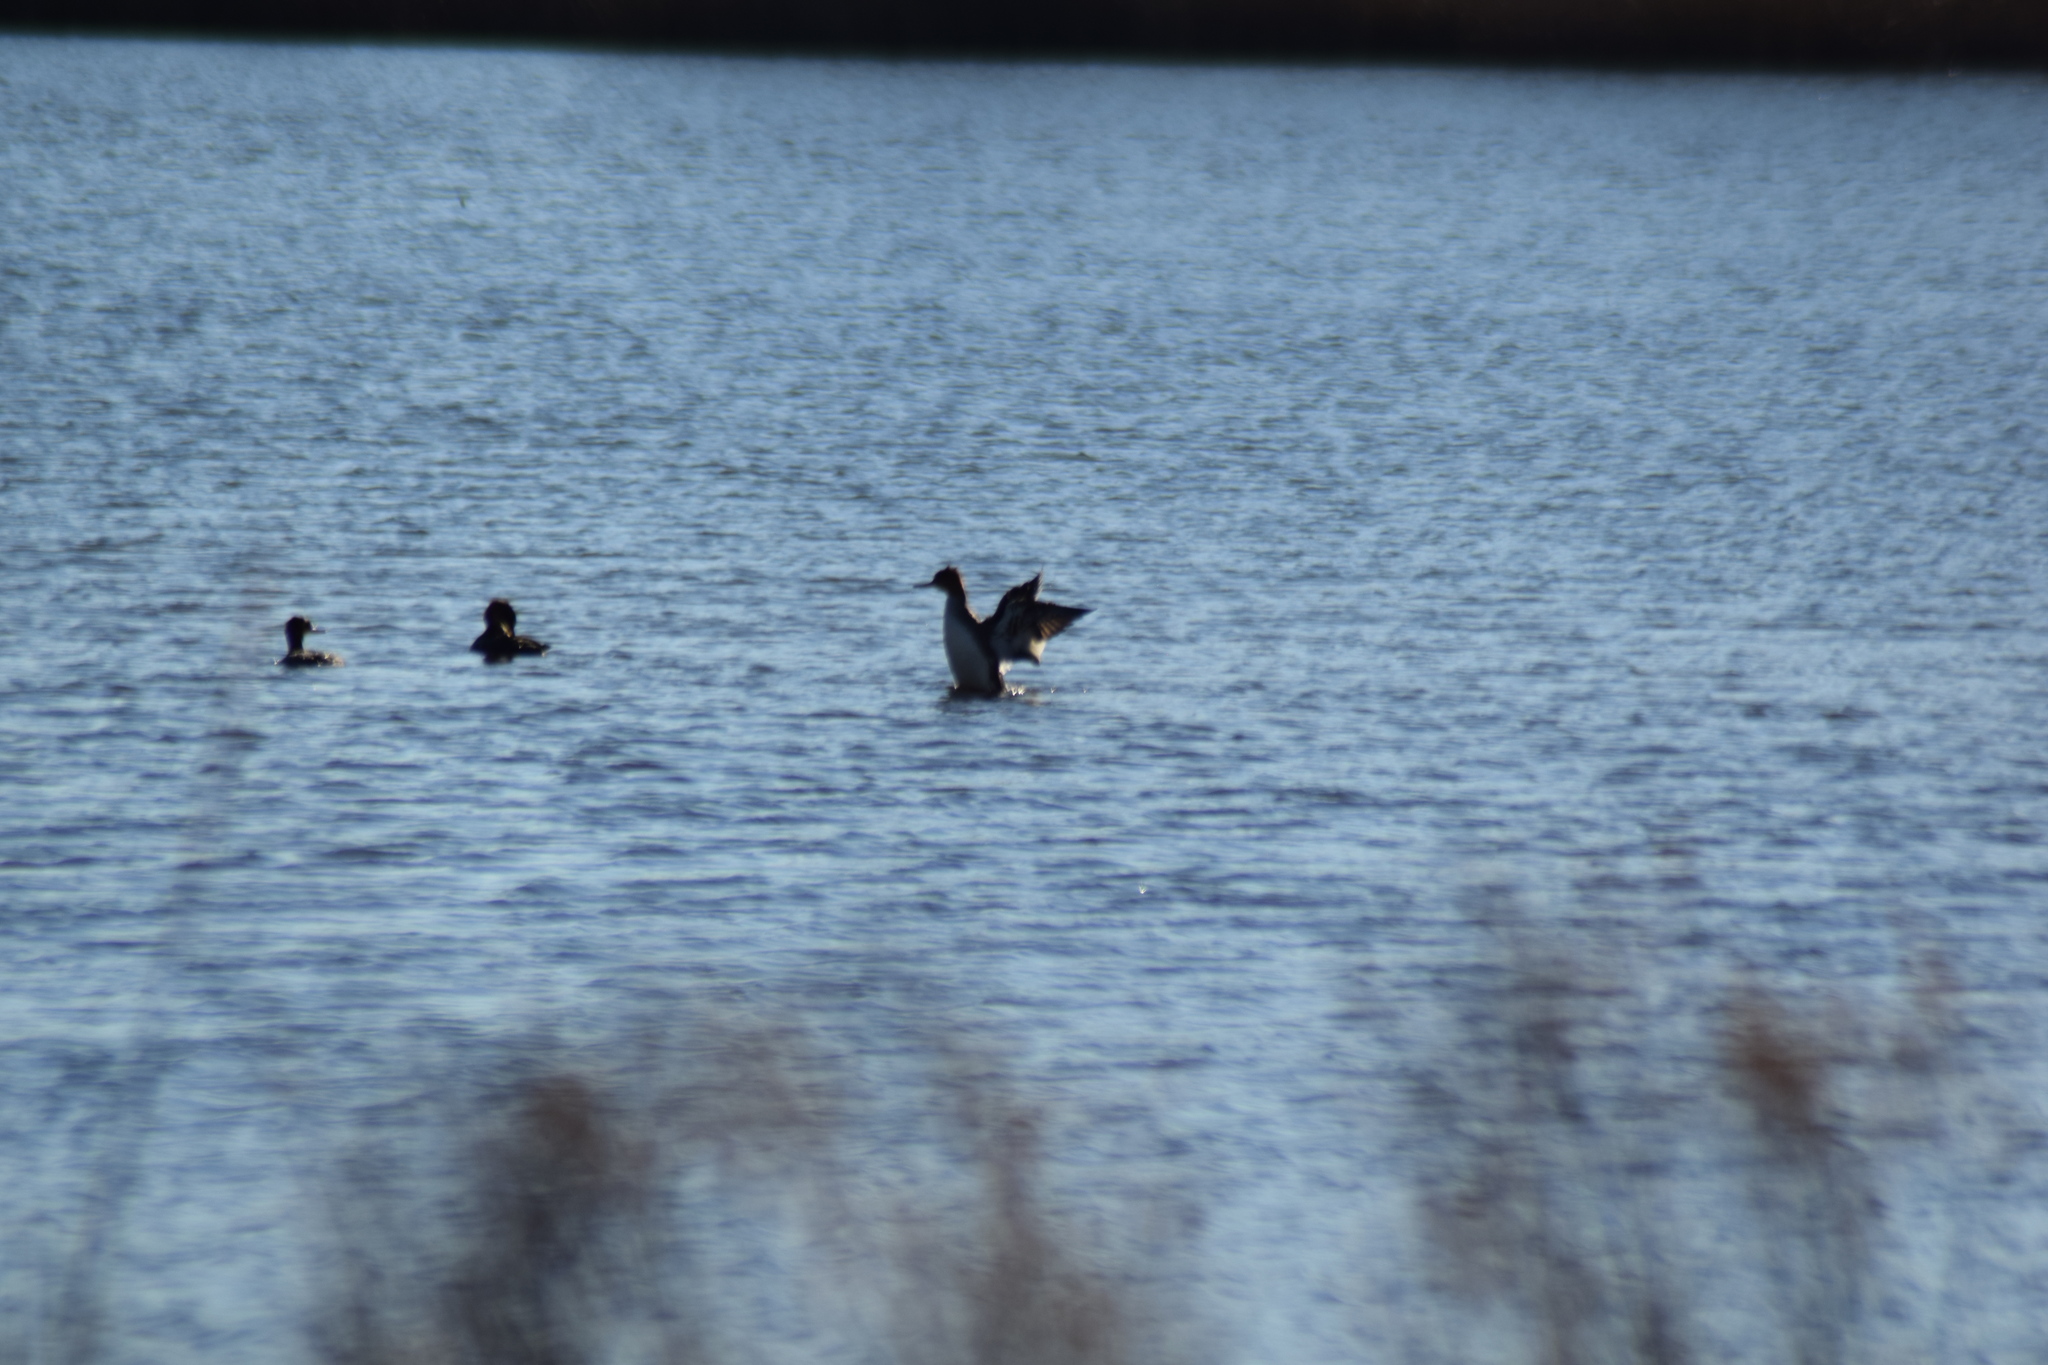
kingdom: Animalia
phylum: Chordata
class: Aves
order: Anseriformes
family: Anatidae
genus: Mergus
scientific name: Mergus serrator
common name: Red-breasted merganser
